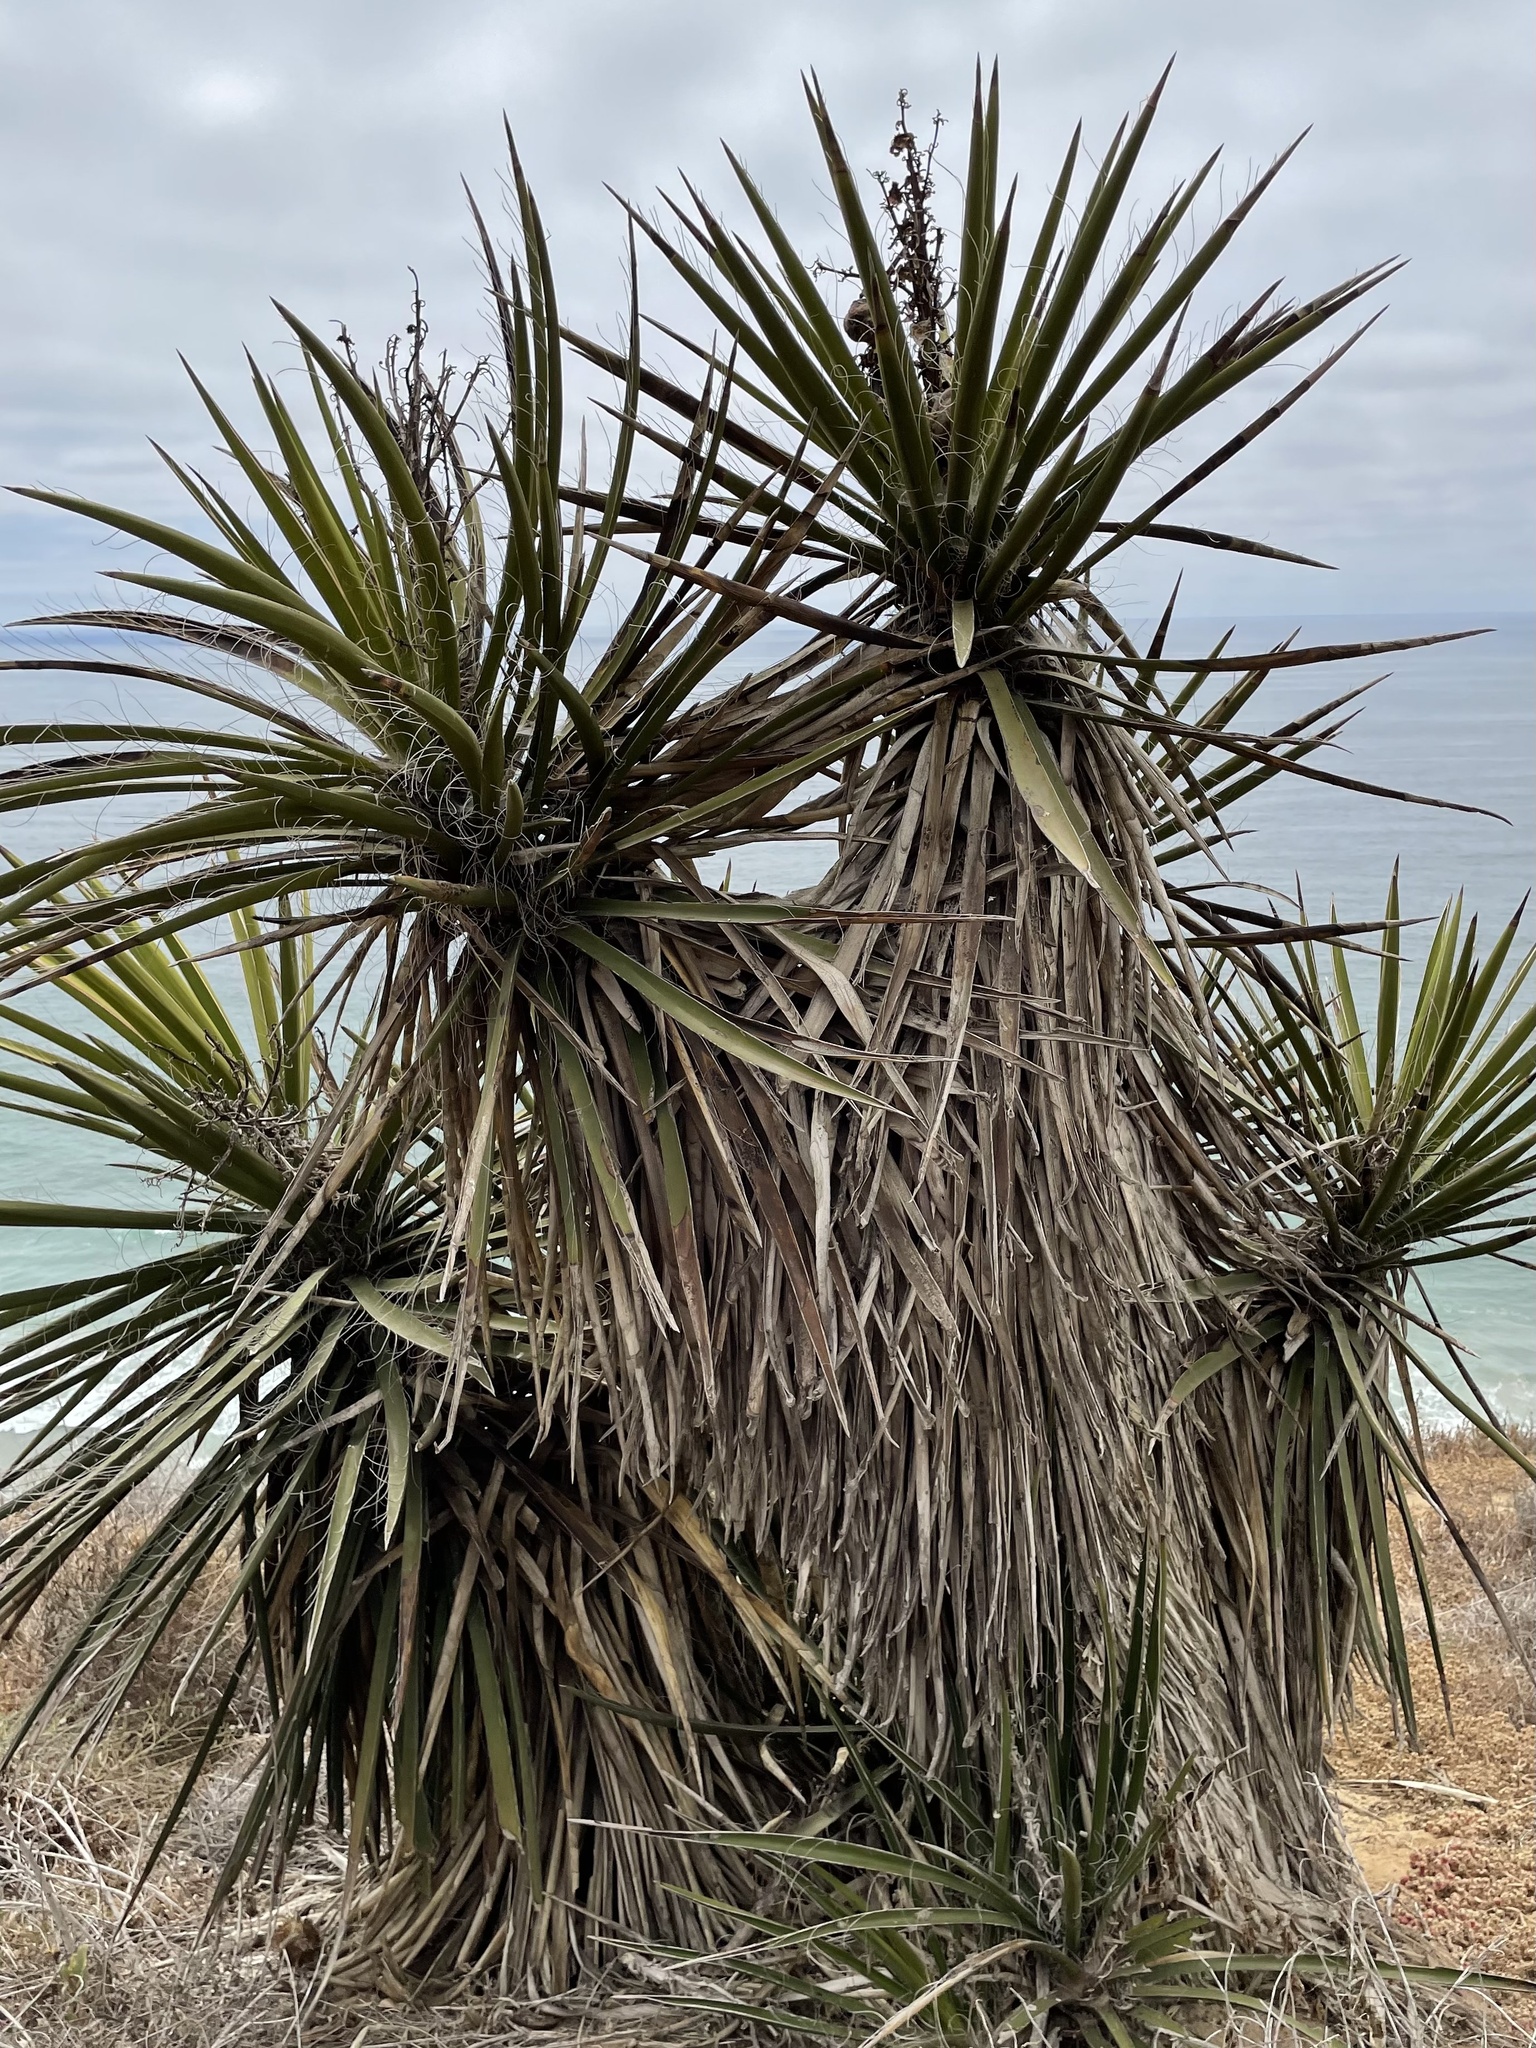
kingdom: Plantae
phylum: Tracheophyta
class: Liliopsida
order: Asparagales
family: Asparagaceae
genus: Yucca
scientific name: Yucca schidigera
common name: Mojave yucca
